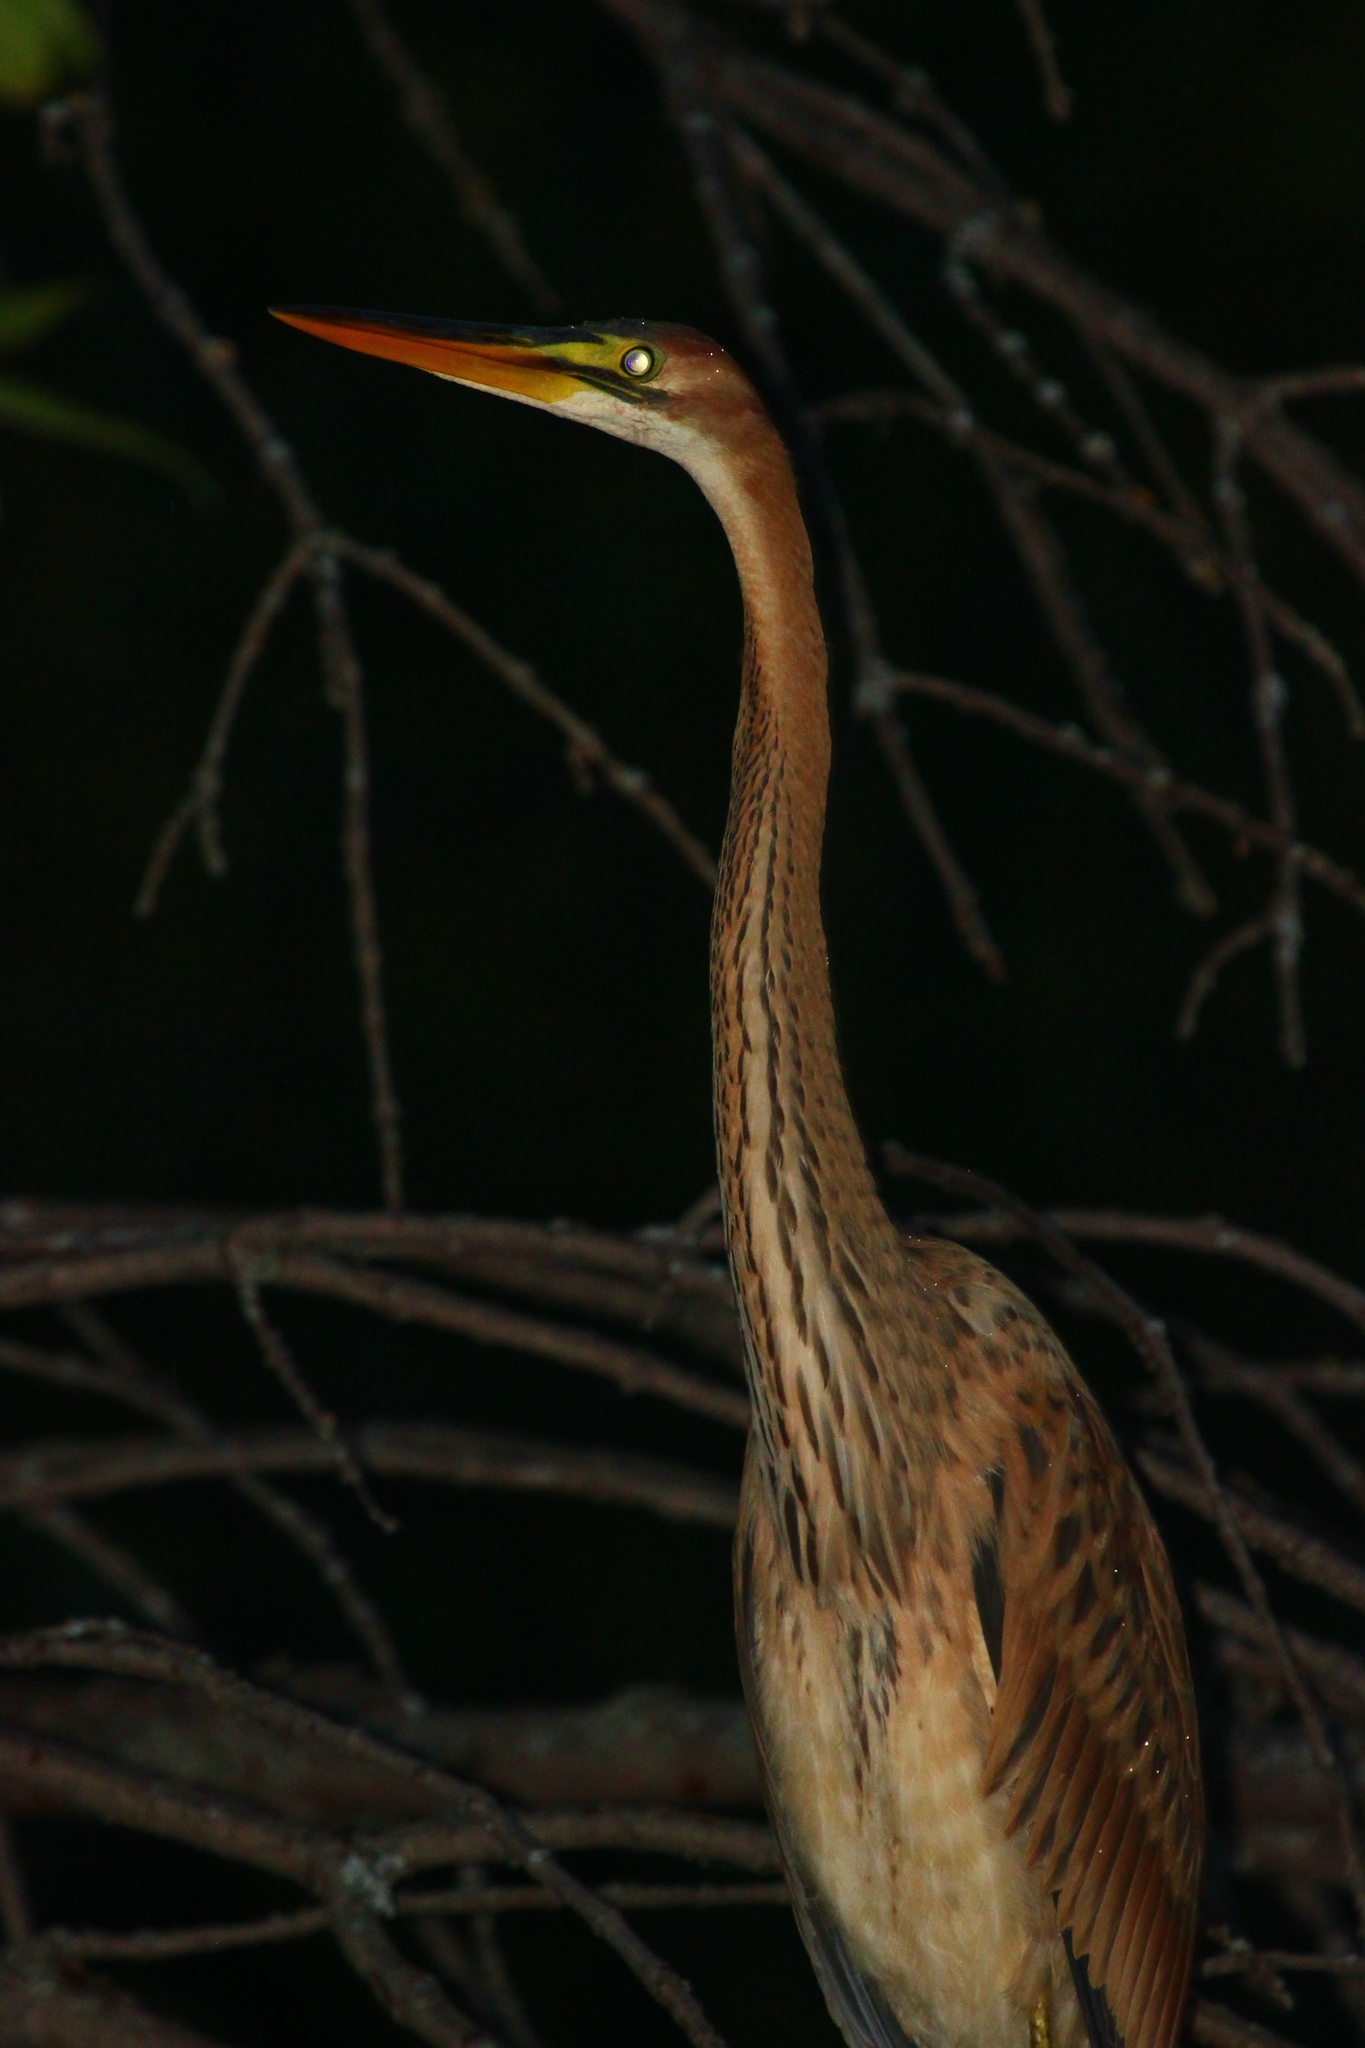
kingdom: Animalia
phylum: Chordata
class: Aves
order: Pelecaniformes
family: Ardeidae
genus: Ardea
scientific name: Ardea purpurea
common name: Purple heron
